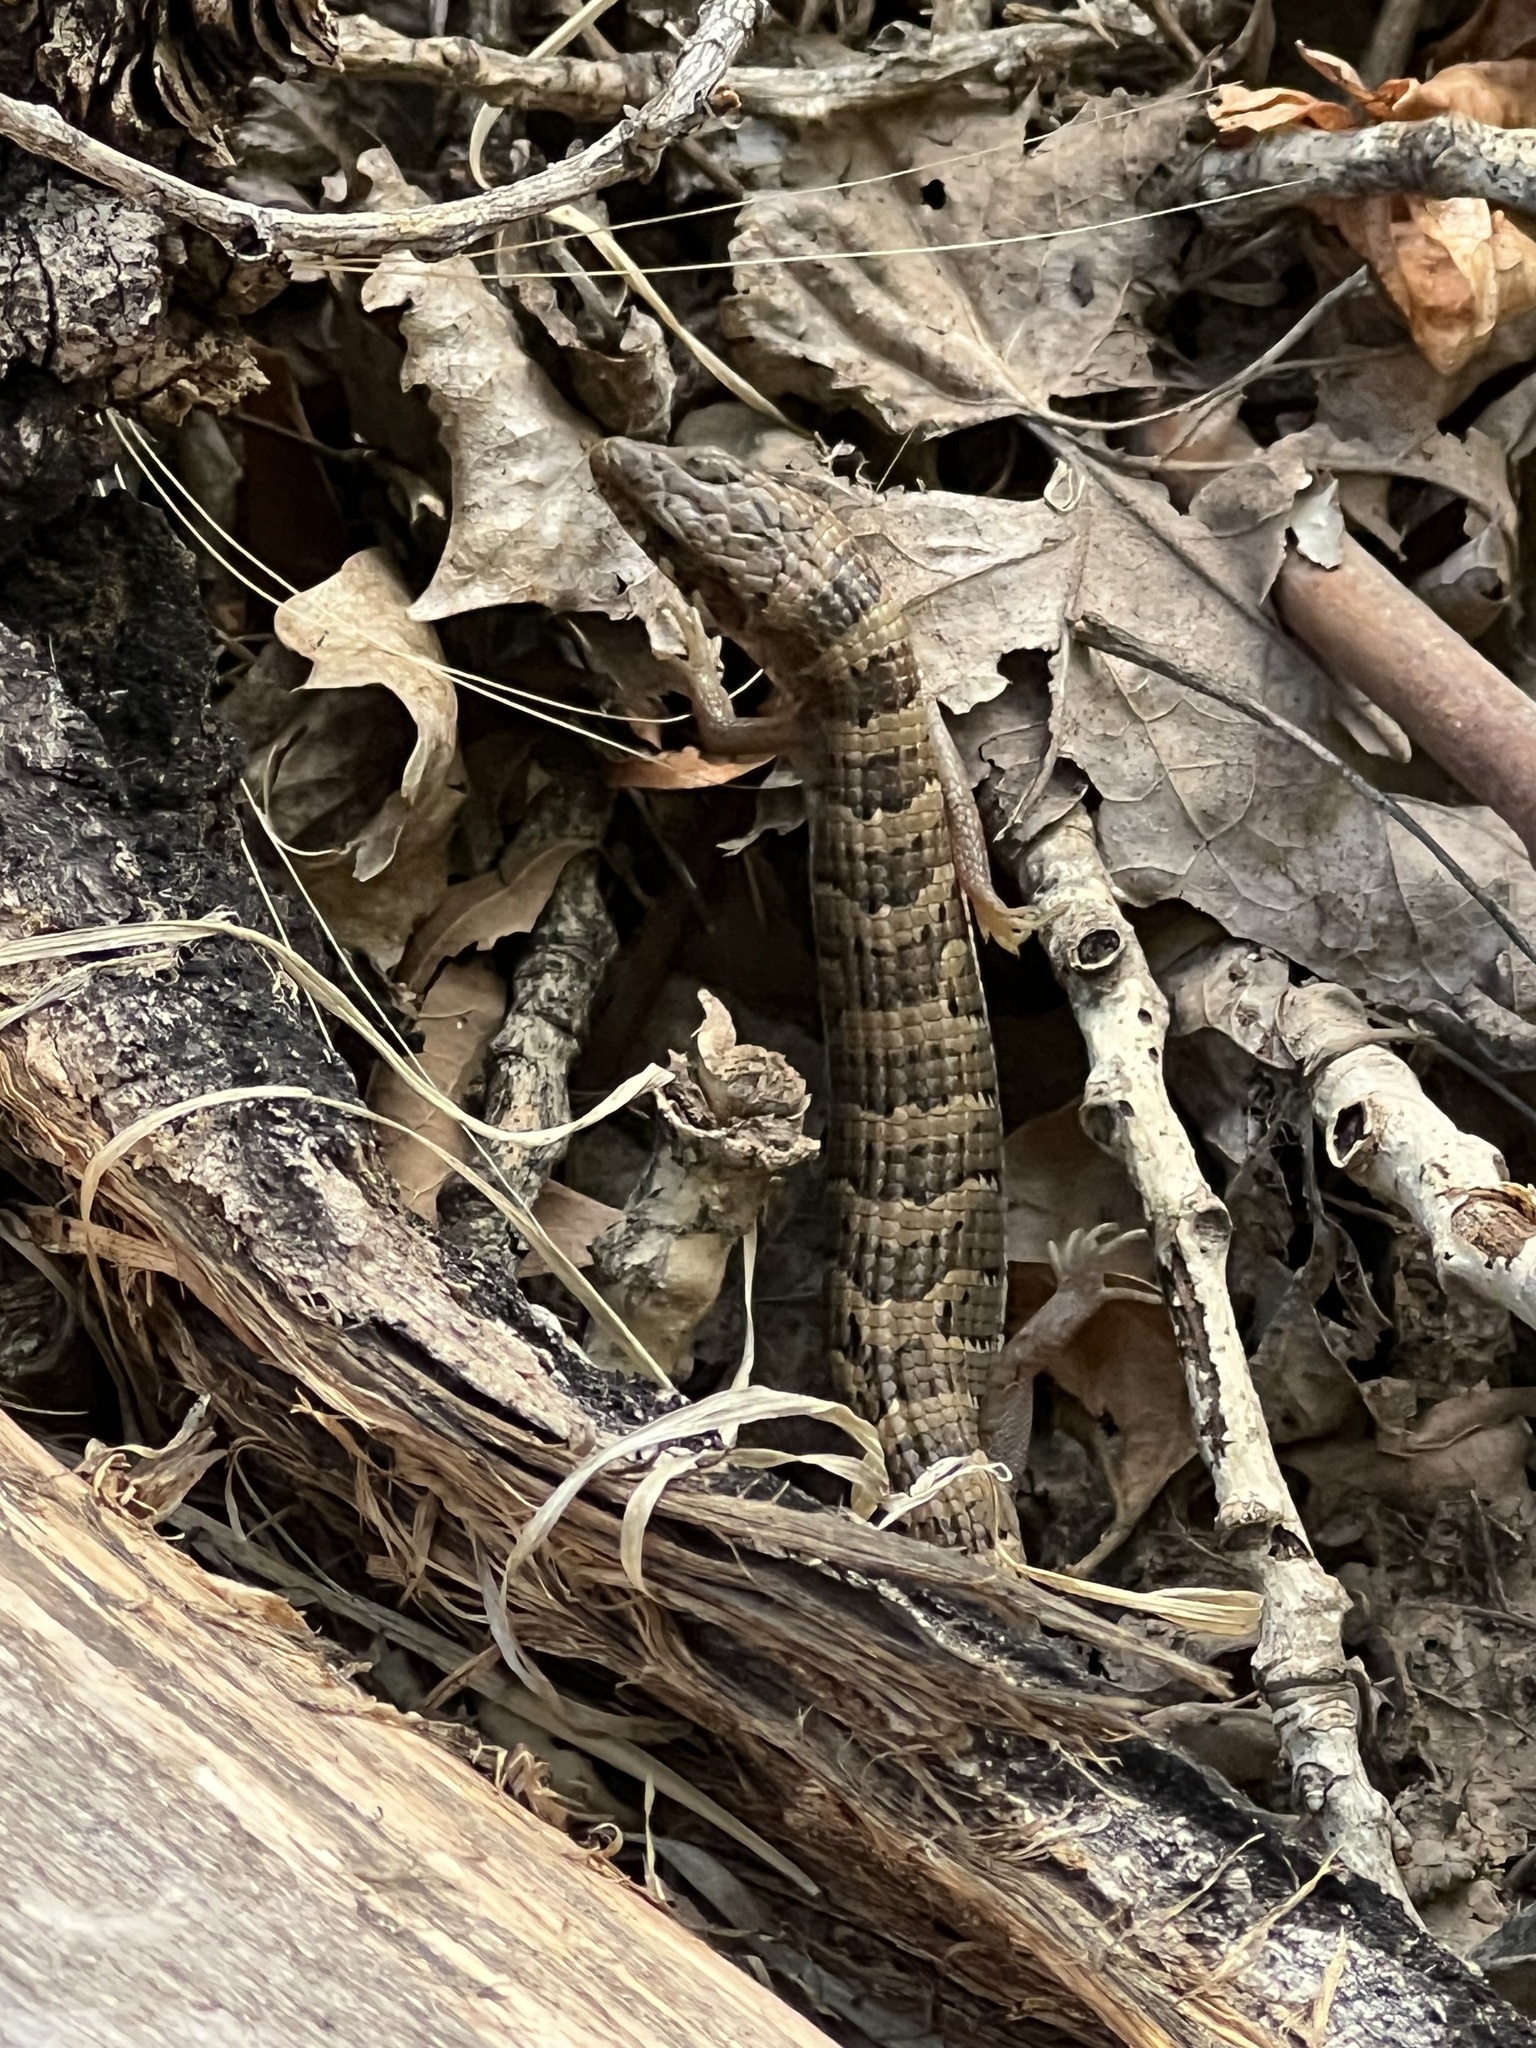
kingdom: Animalia
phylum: Chordata
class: Squamata
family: Anguidae
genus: Elgaria
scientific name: Elgaria kingii
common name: Madrean alligator lizard
